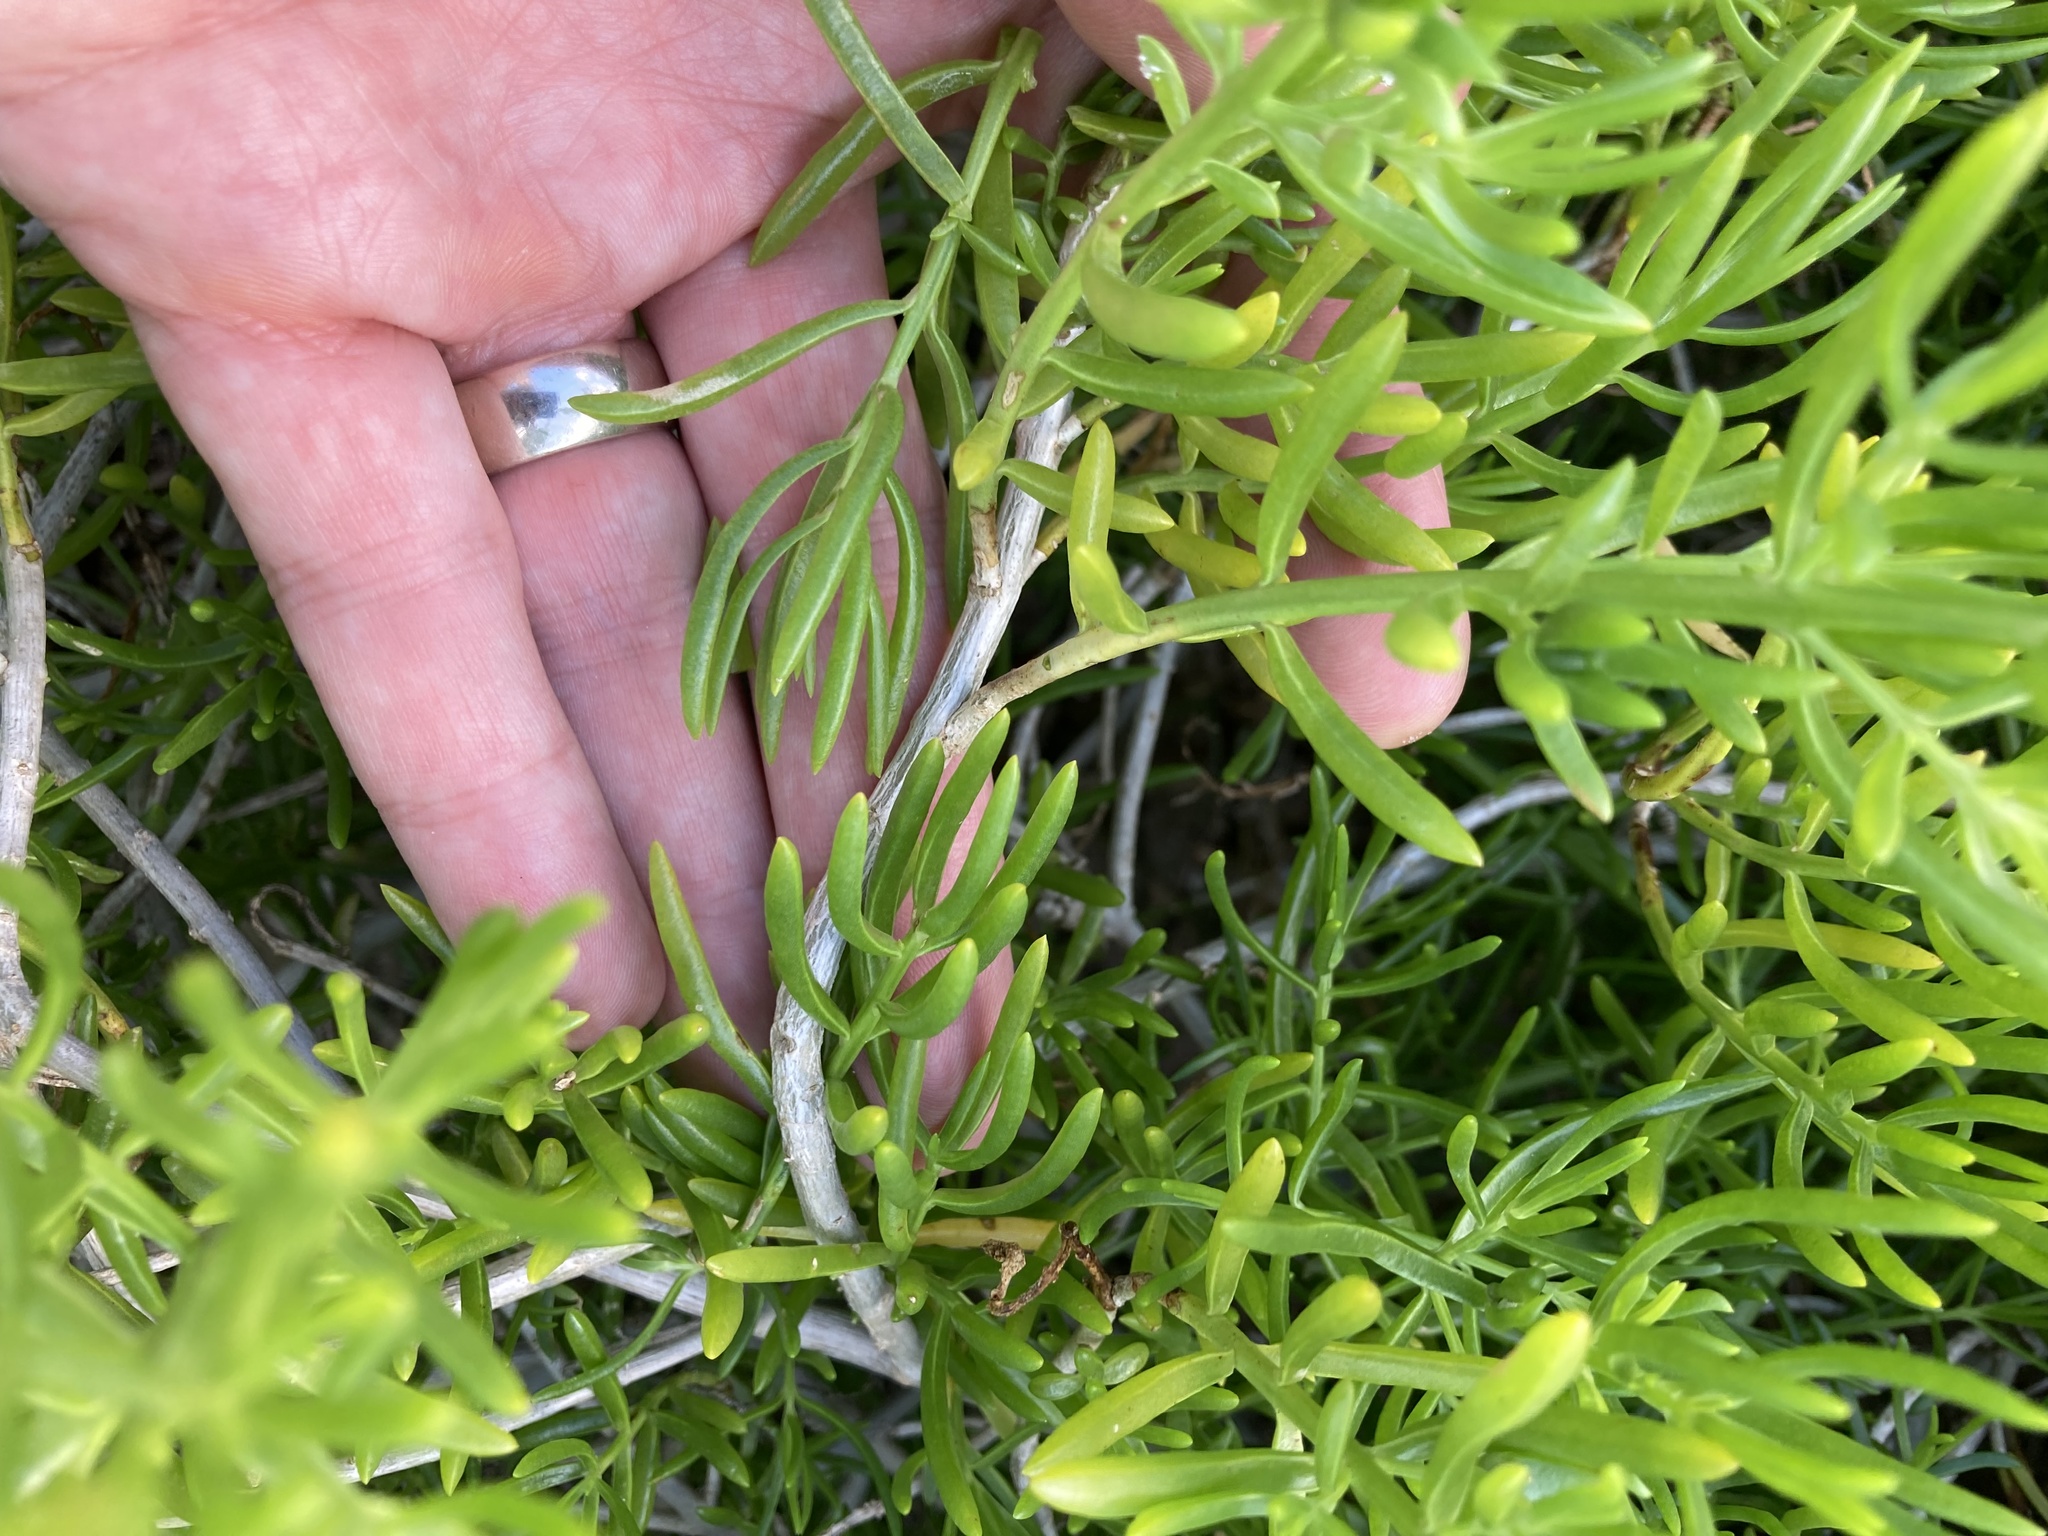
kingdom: Plantae
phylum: Tracheophyta
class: Magnoliopsida
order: Brassicales
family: Bataceae
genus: Batis
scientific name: Batis maritima
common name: Turtleweed
